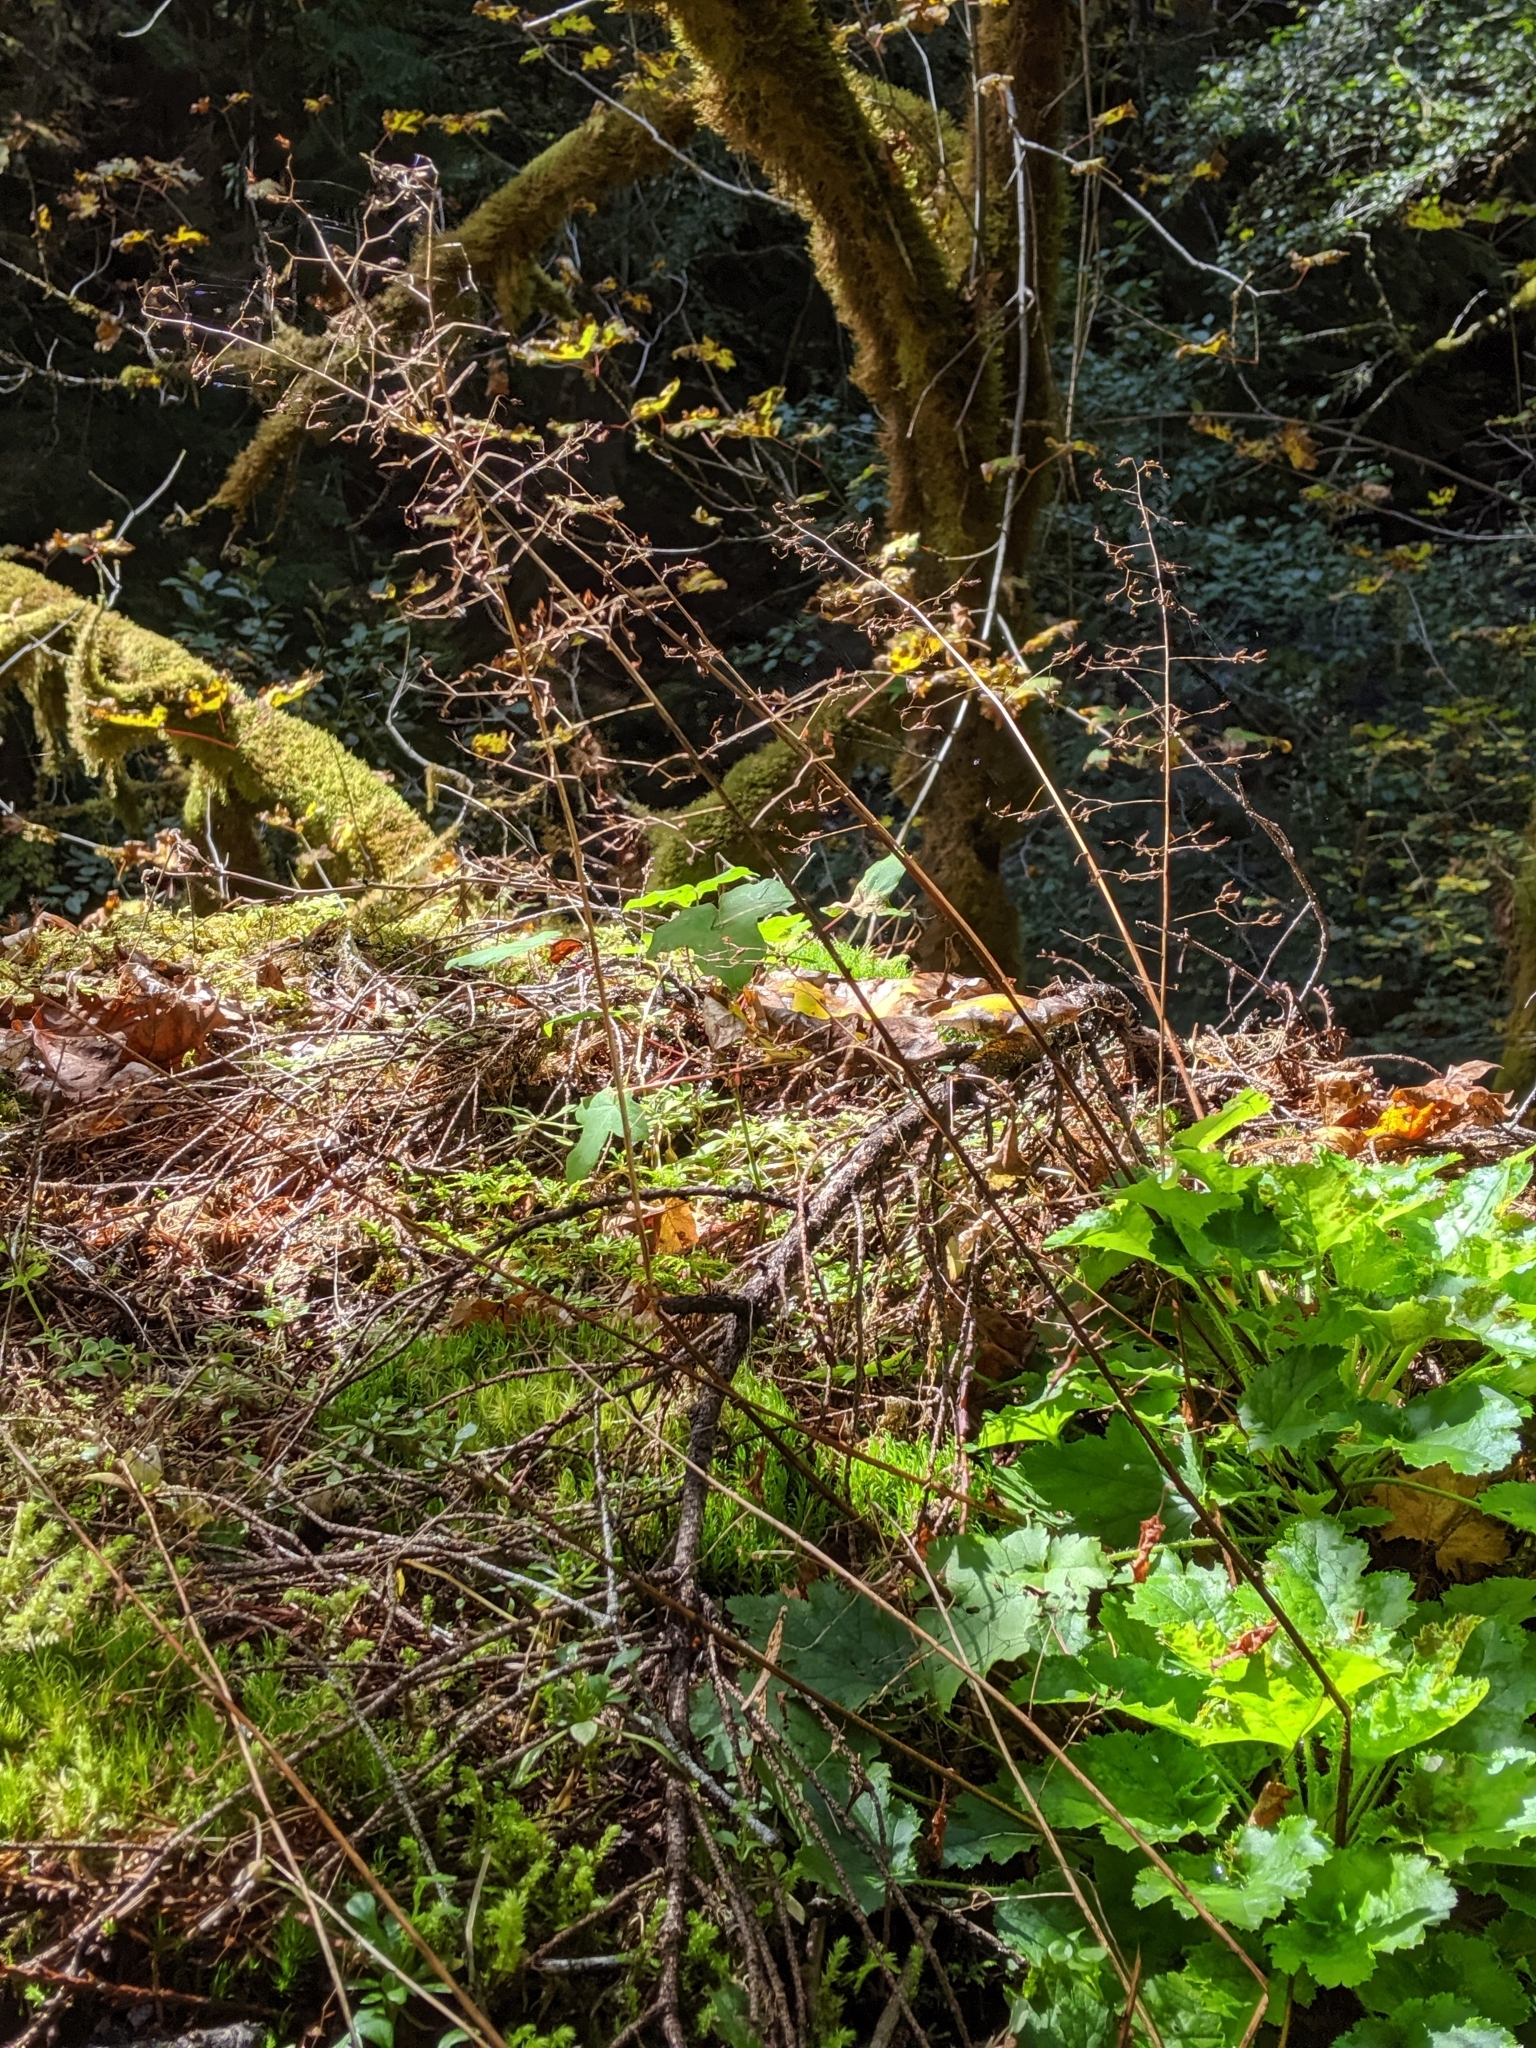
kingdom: Plantae
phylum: Tracheophyta
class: Magnoliopsida
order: Saxifragales
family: Saxifragaceae
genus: Heuchera
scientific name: Heuchera micrantha
